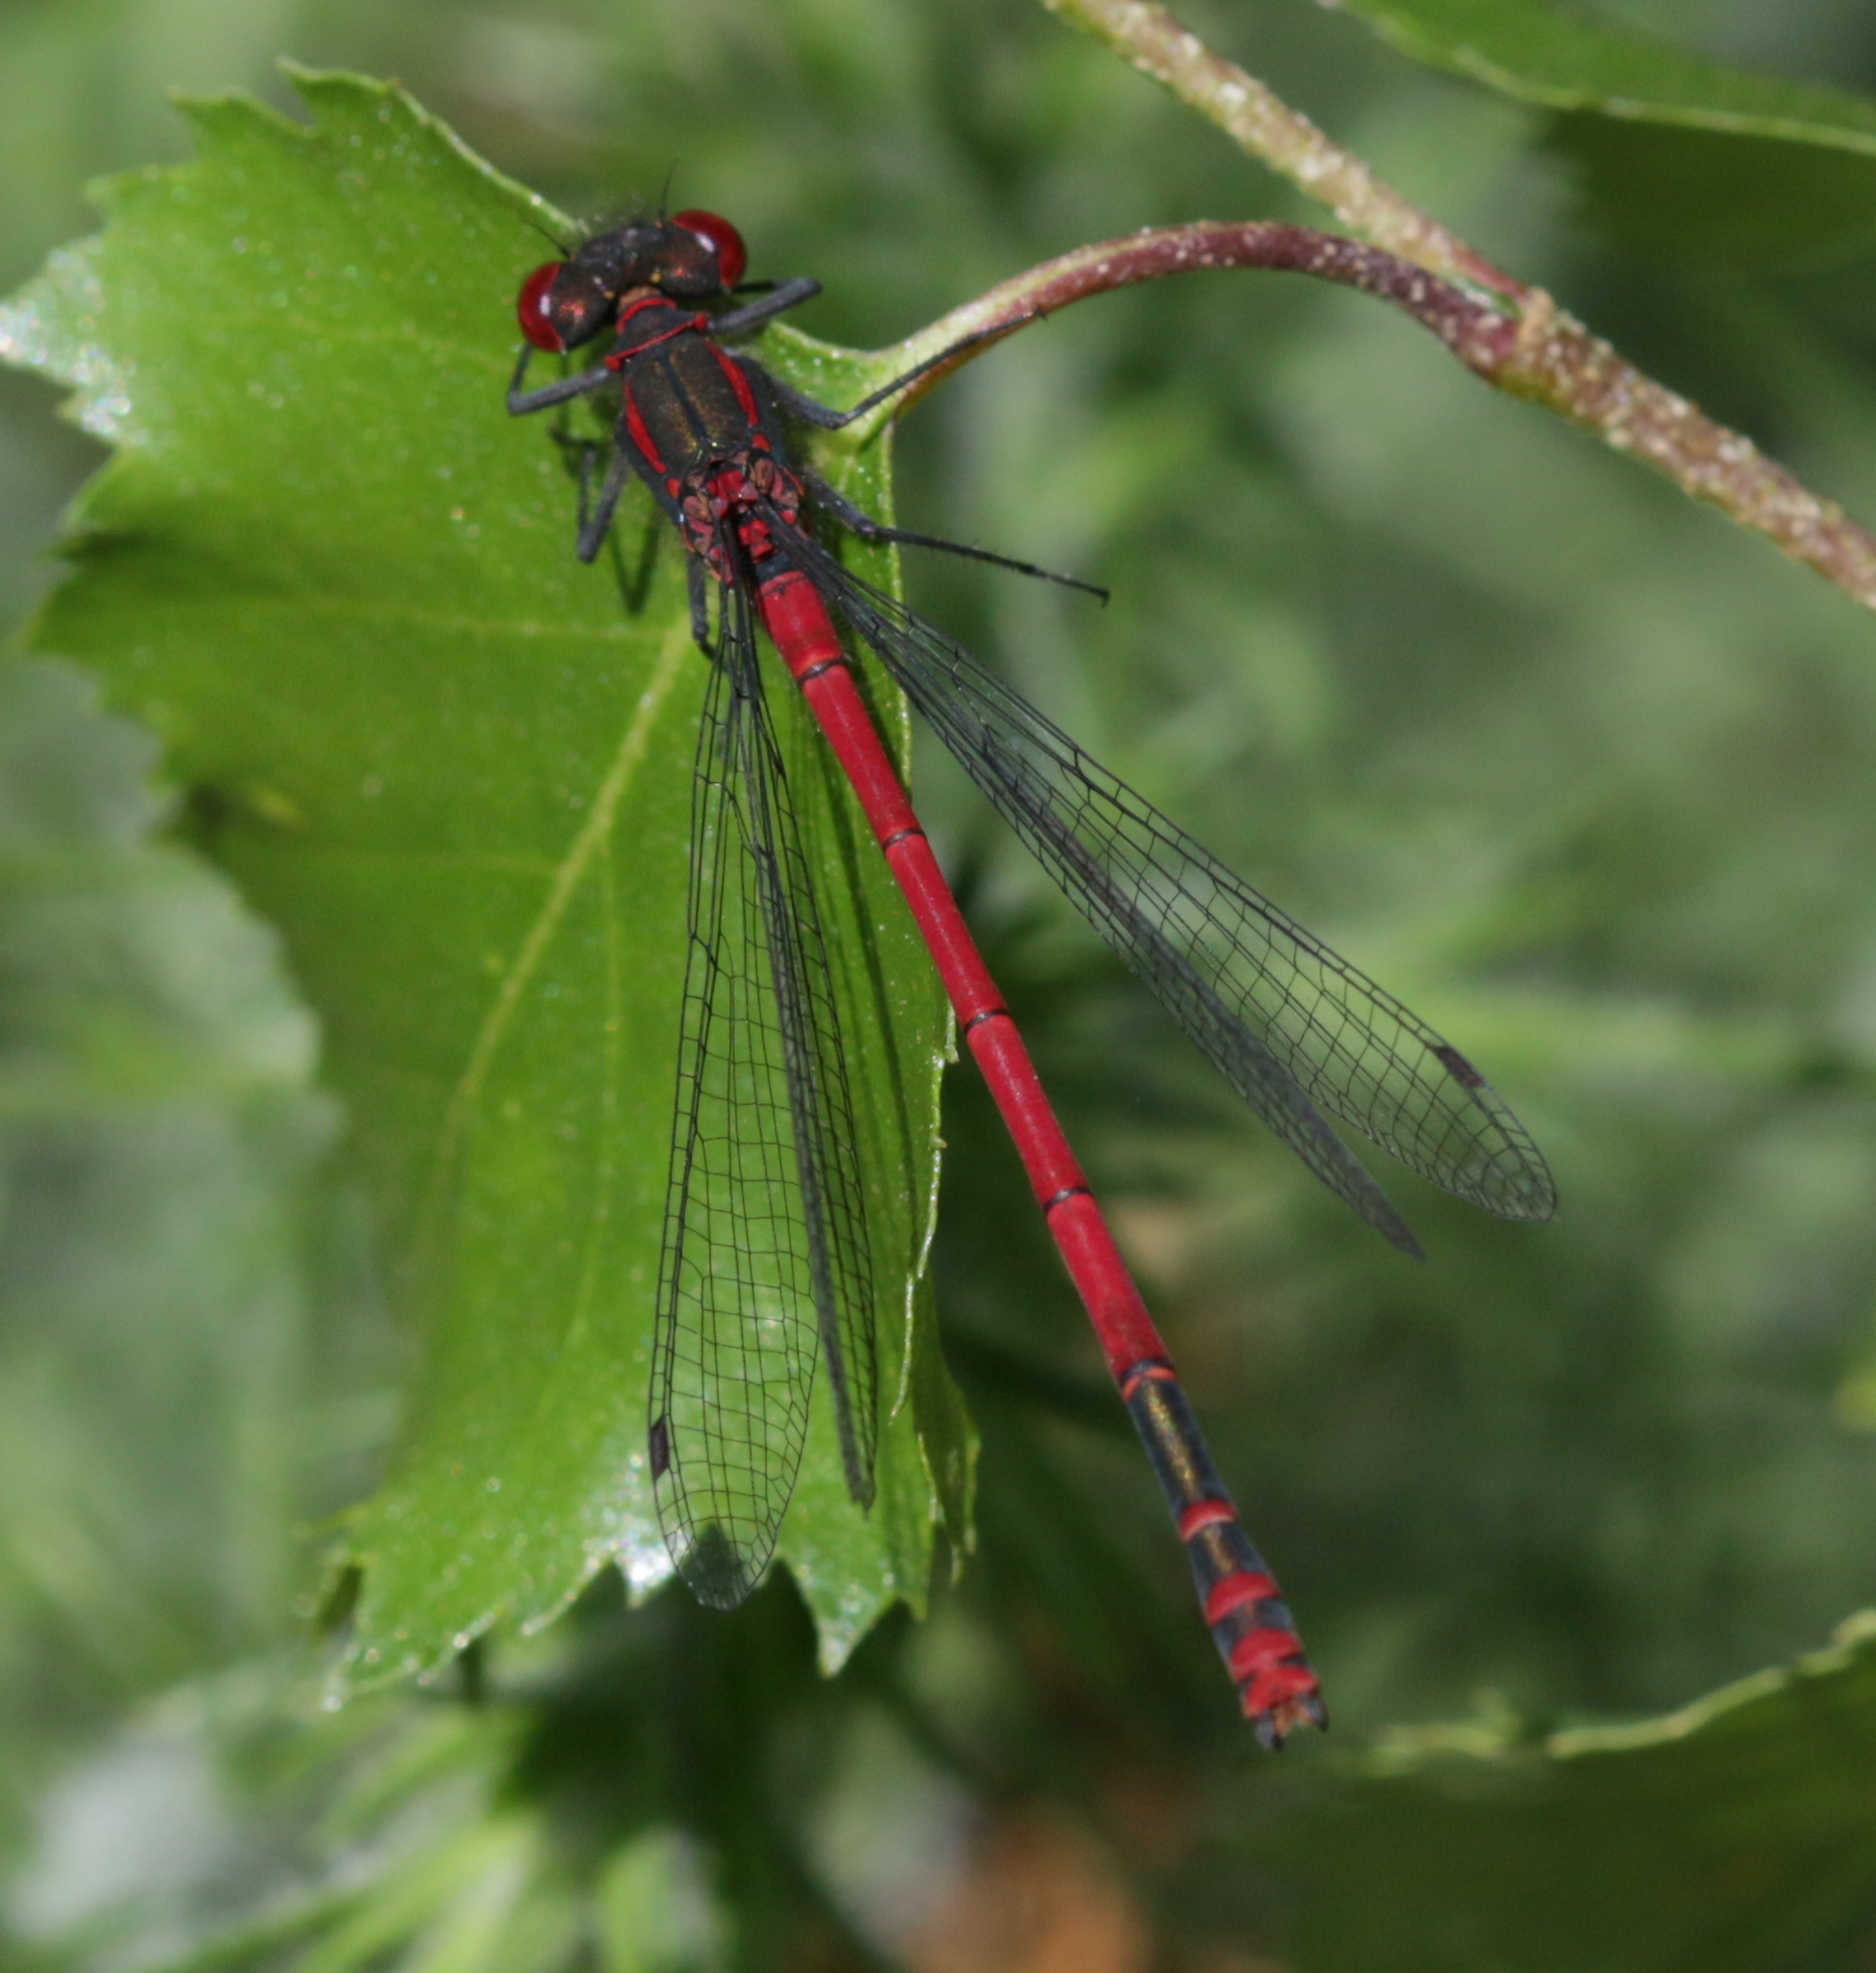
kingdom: Animalia
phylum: Arthropoda
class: Insecta
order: Odonata
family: Coenagrionidae
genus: Pyrrhosoma
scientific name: Pyrrhosoma nymphula
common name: Large red damsel
